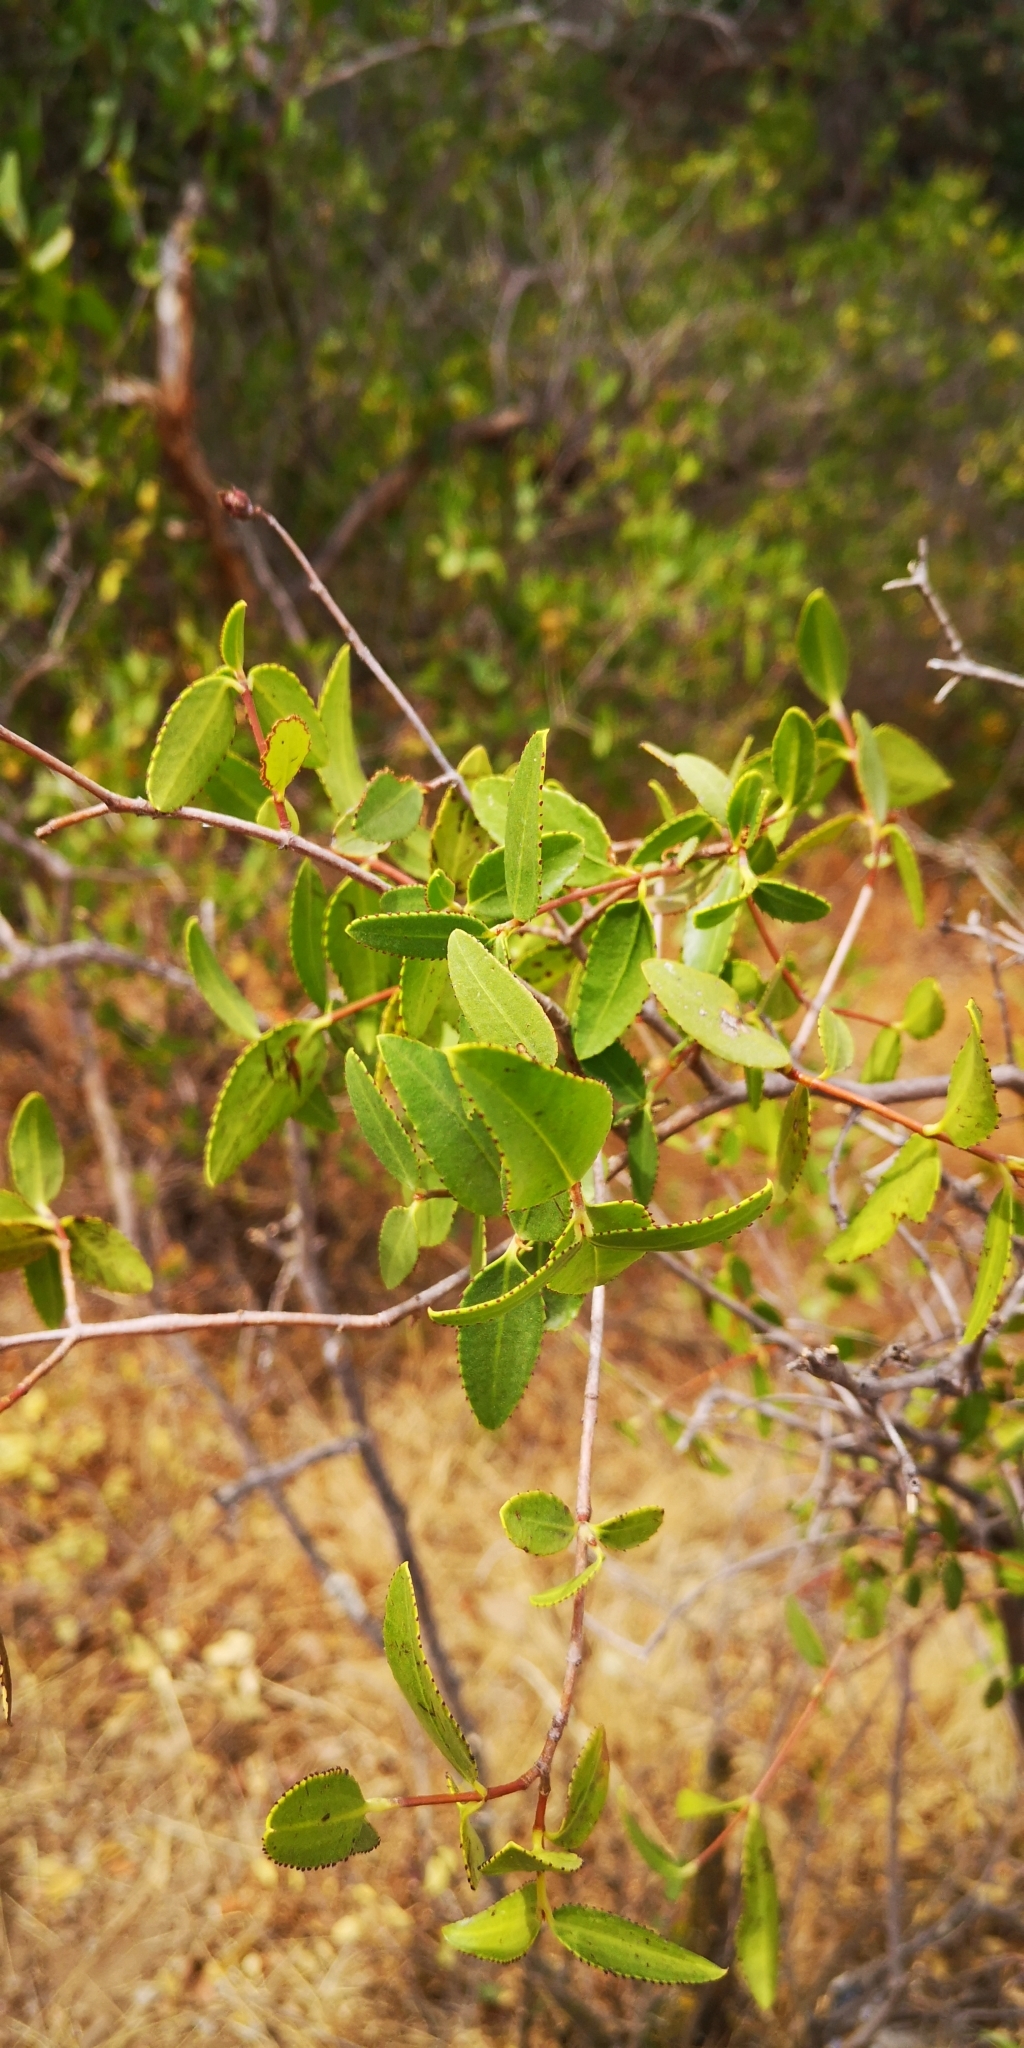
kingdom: Plantae
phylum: Tracheophyta
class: Magnoliopsida
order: Malpighiales
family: Euphorbiaceae
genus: Colliguaja
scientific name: Colliguaja odorifera
